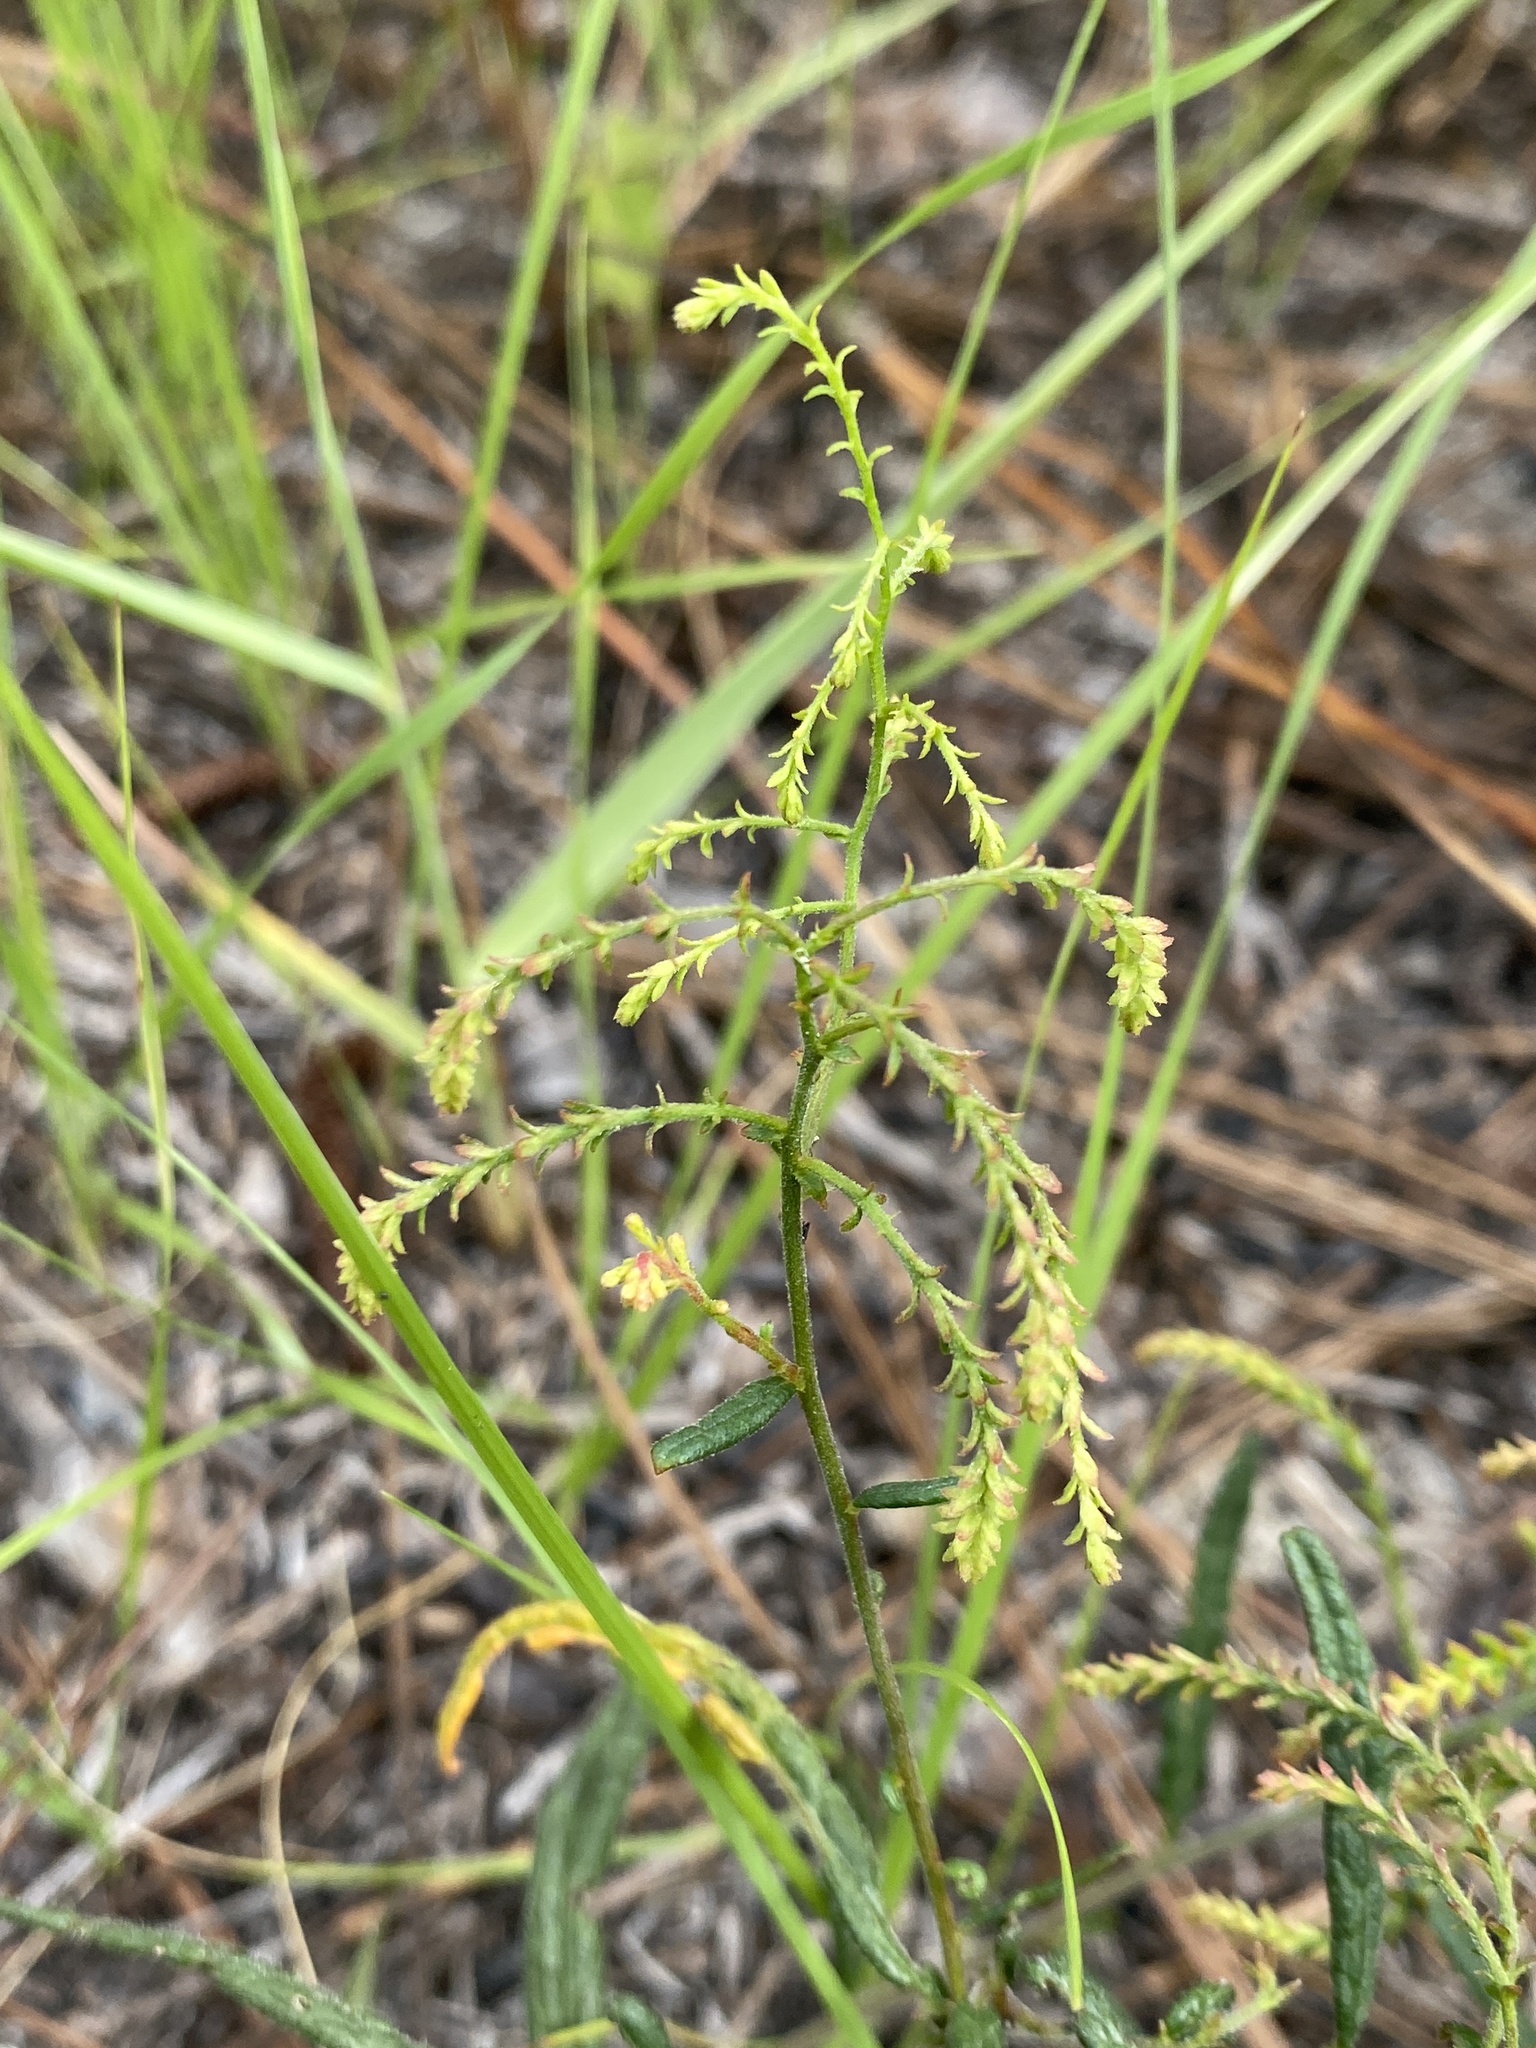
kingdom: Plantae
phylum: Tracheophyta
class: Magnoliopsida
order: Malpighiales
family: Euphorbiaceae
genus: Tragia
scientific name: Tragia urens
